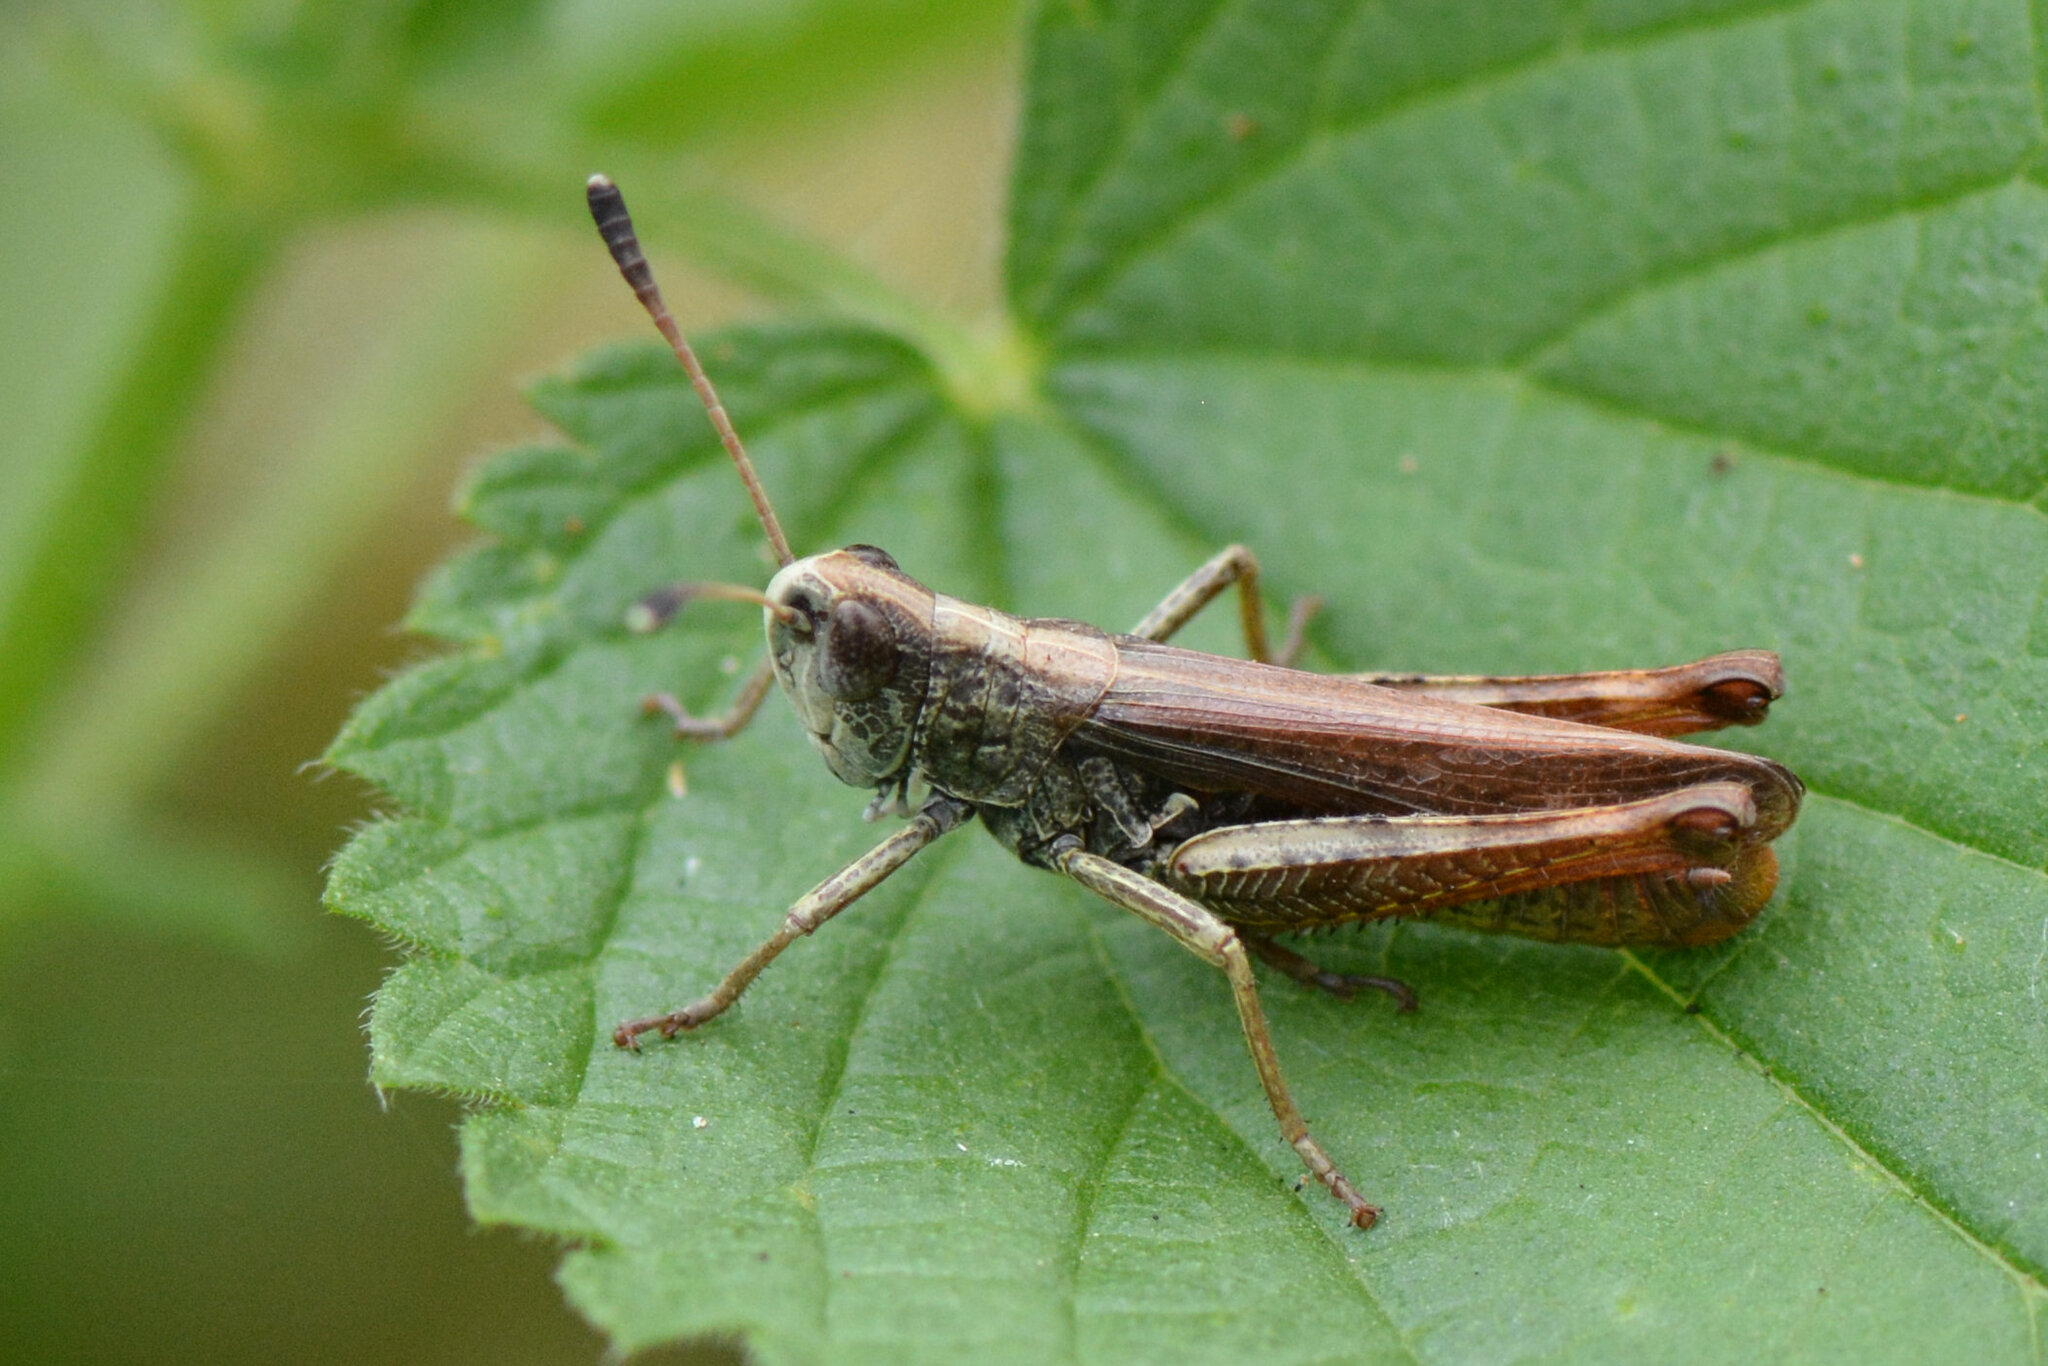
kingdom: Animalia
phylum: Arthropoda
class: Insecta
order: Orthoptera
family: Acrididae
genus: Gomphocerippus
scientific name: Gomphocerippus rufus
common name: Rufous grasshopper
